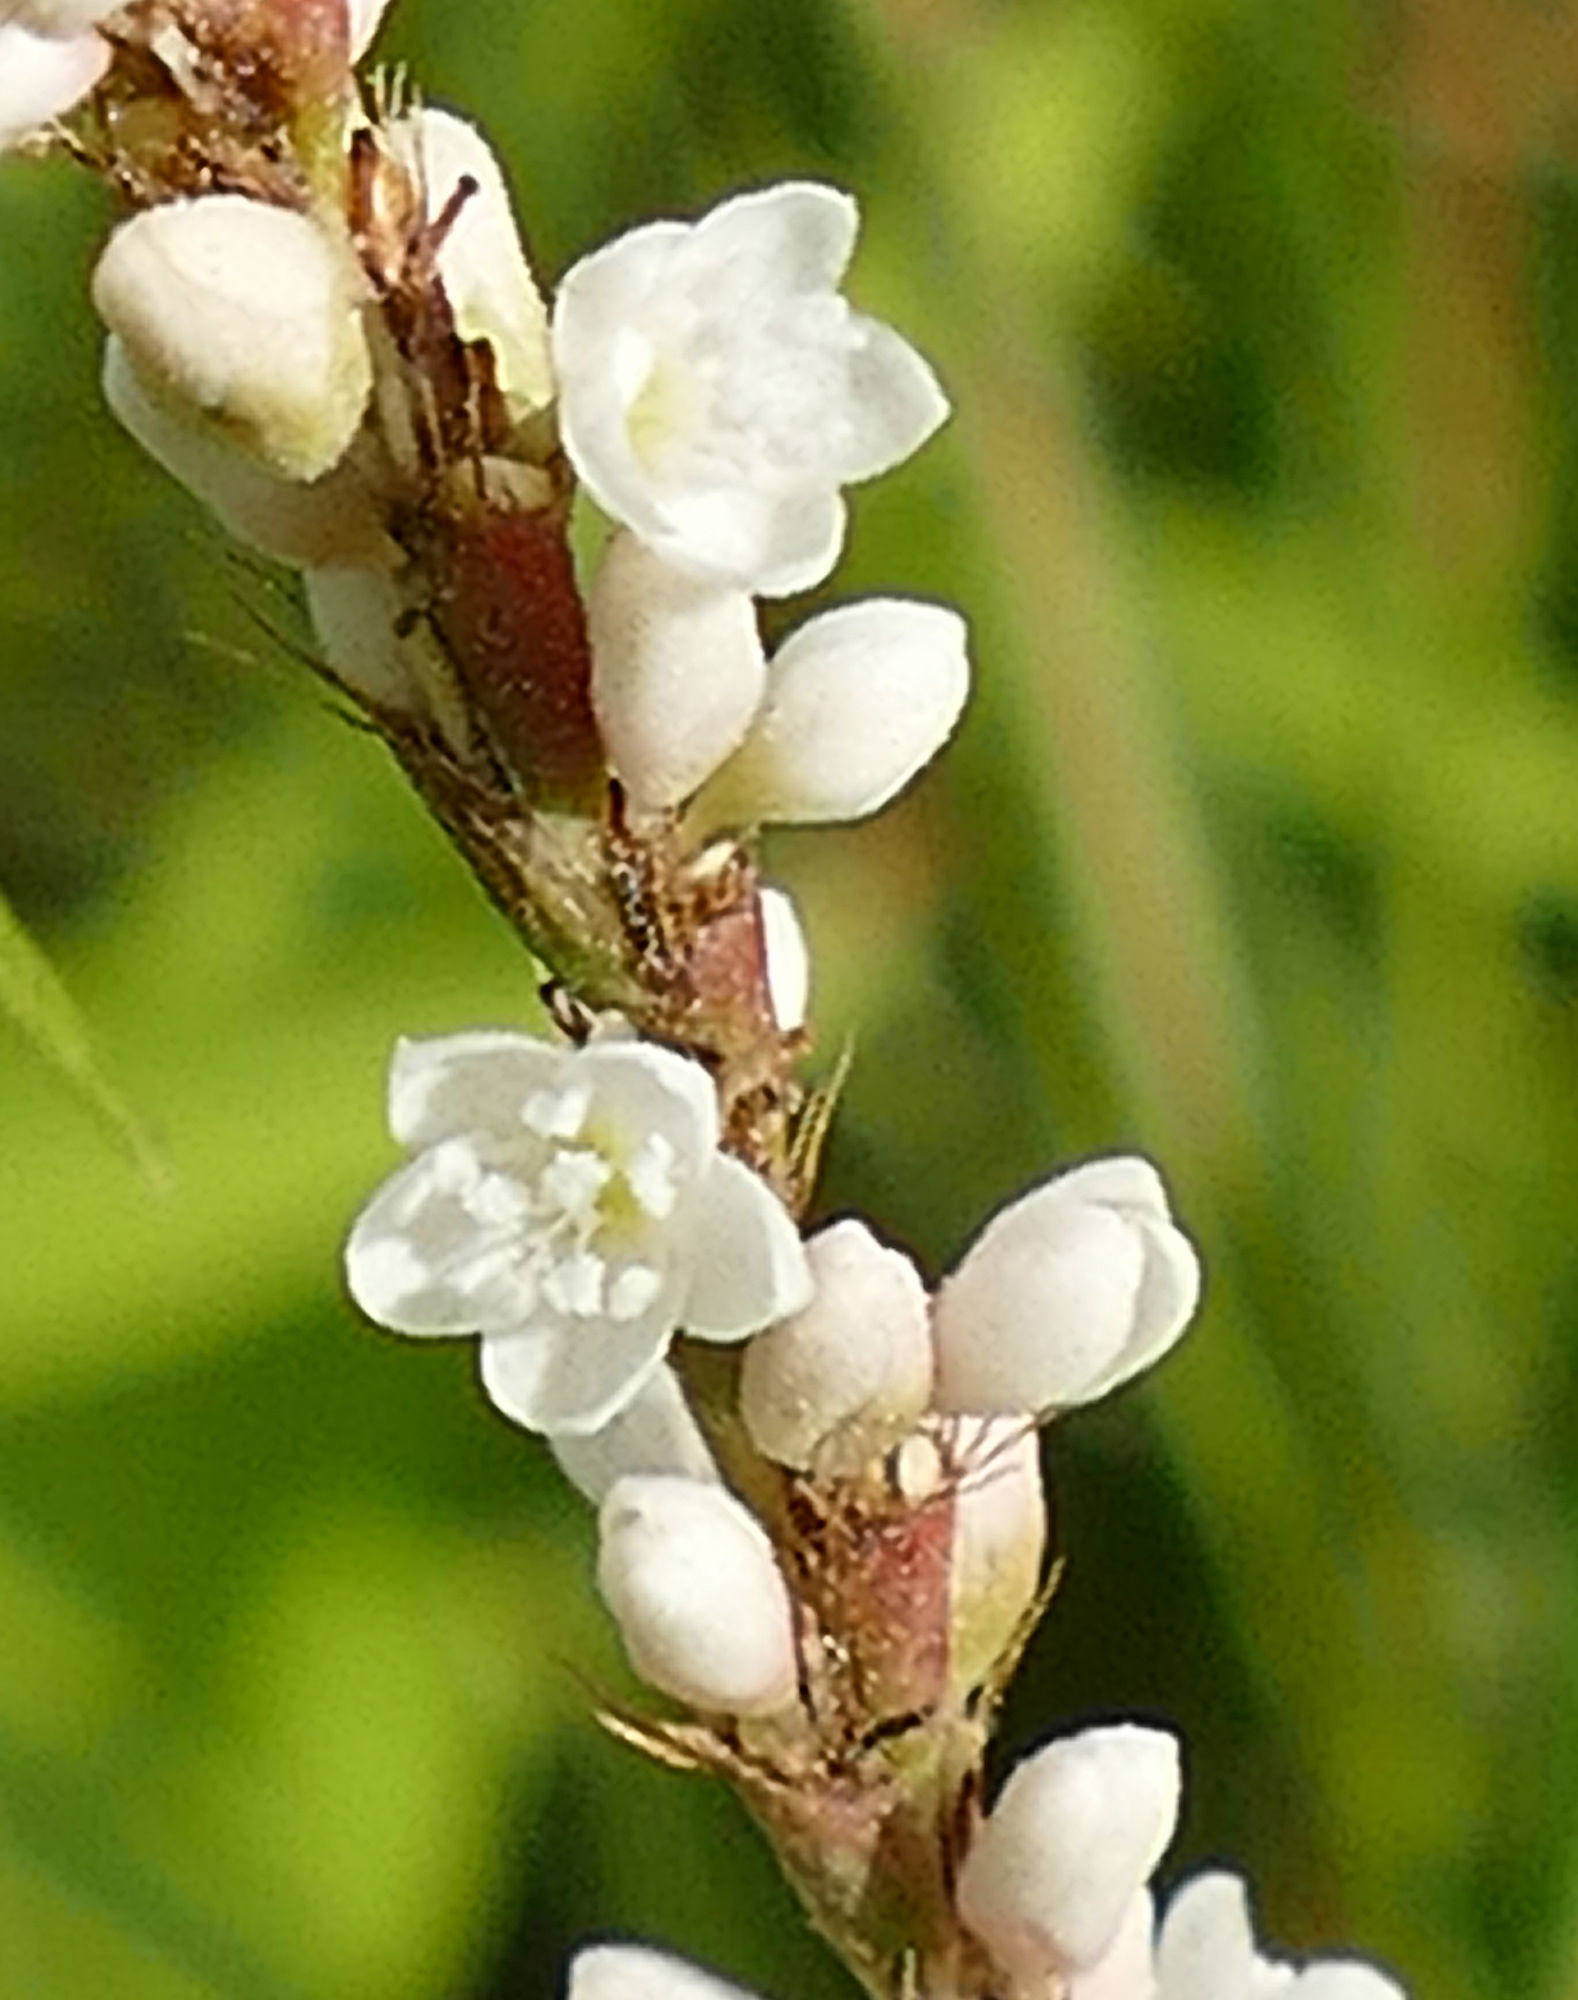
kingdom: Plantae
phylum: Tracheophyta
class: Magnoliopsida
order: Caryophyllales
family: Polygonaceae
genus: Persicaria
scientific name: Persicaria hydropiperoides
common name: Swamp smartweed
